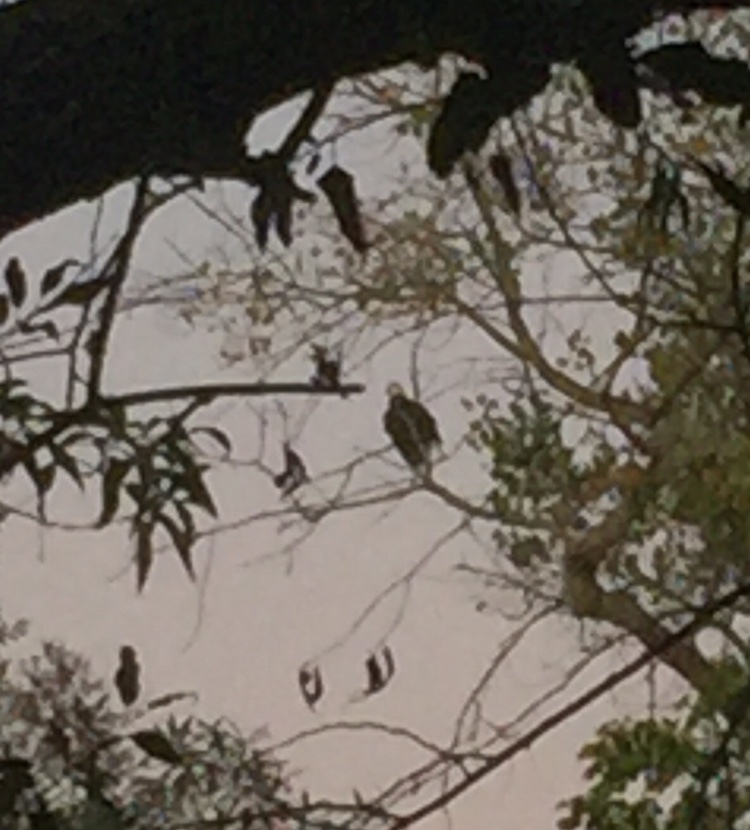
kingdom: Animalia
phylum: Chordata
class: Aves
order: Accipitriformes
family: Accipitridae
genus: Haliaeetus
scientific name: Haliaeetus leucocephalus
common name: Bald eagle
